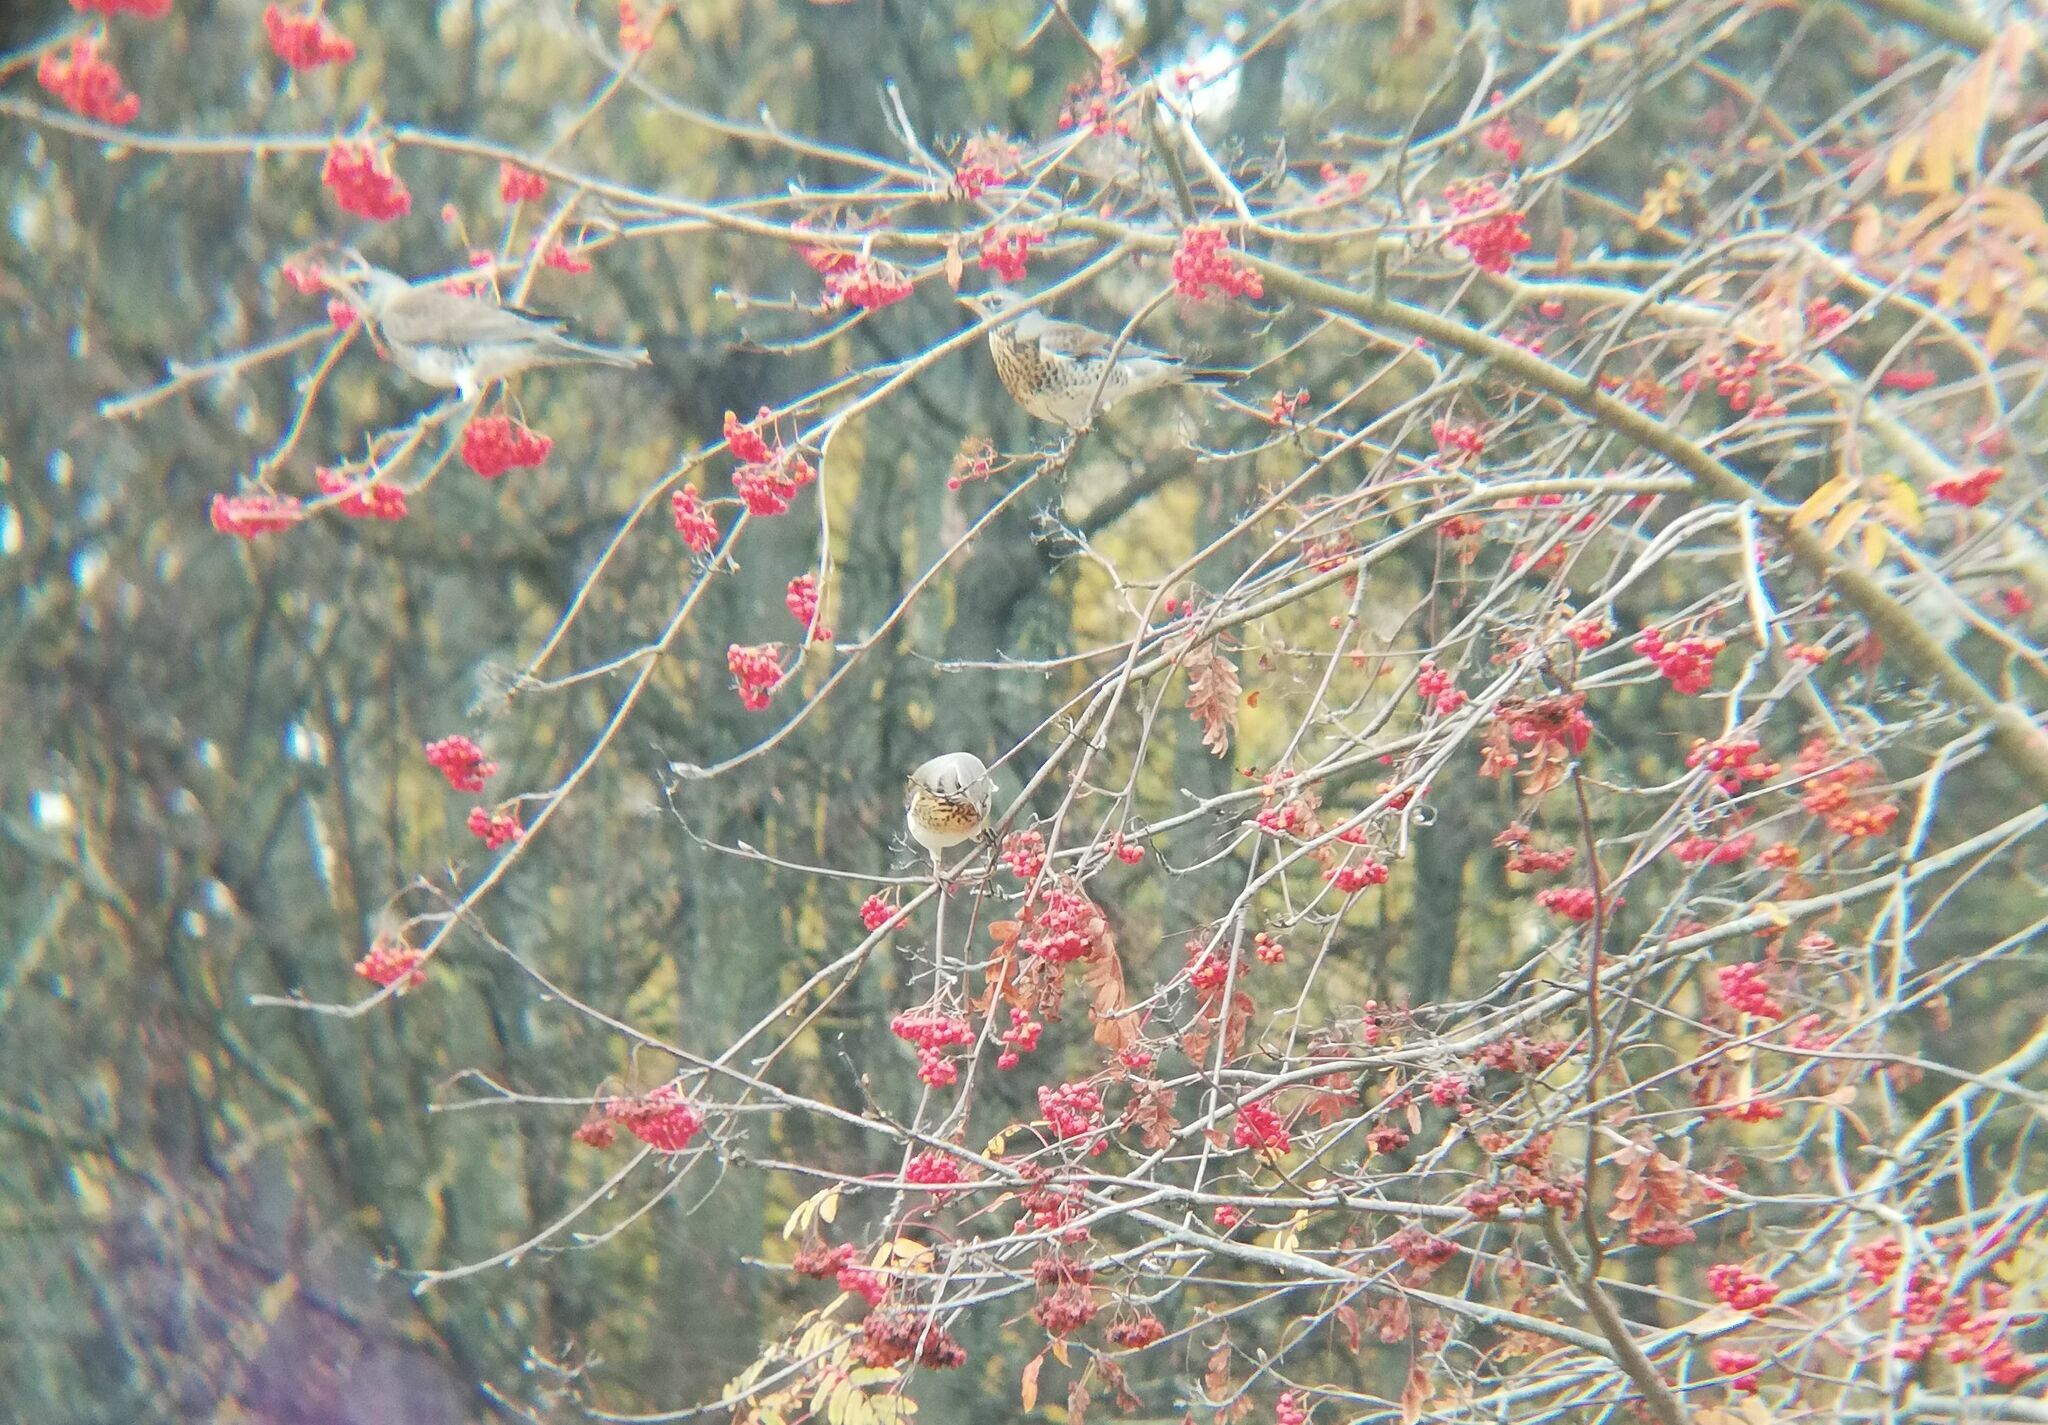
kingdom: Animalia
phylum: Chordata
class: Aves
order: Passeriformes
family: Turdidae
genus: Turdus
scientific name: Turdus pilaris
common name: Fieldfare
